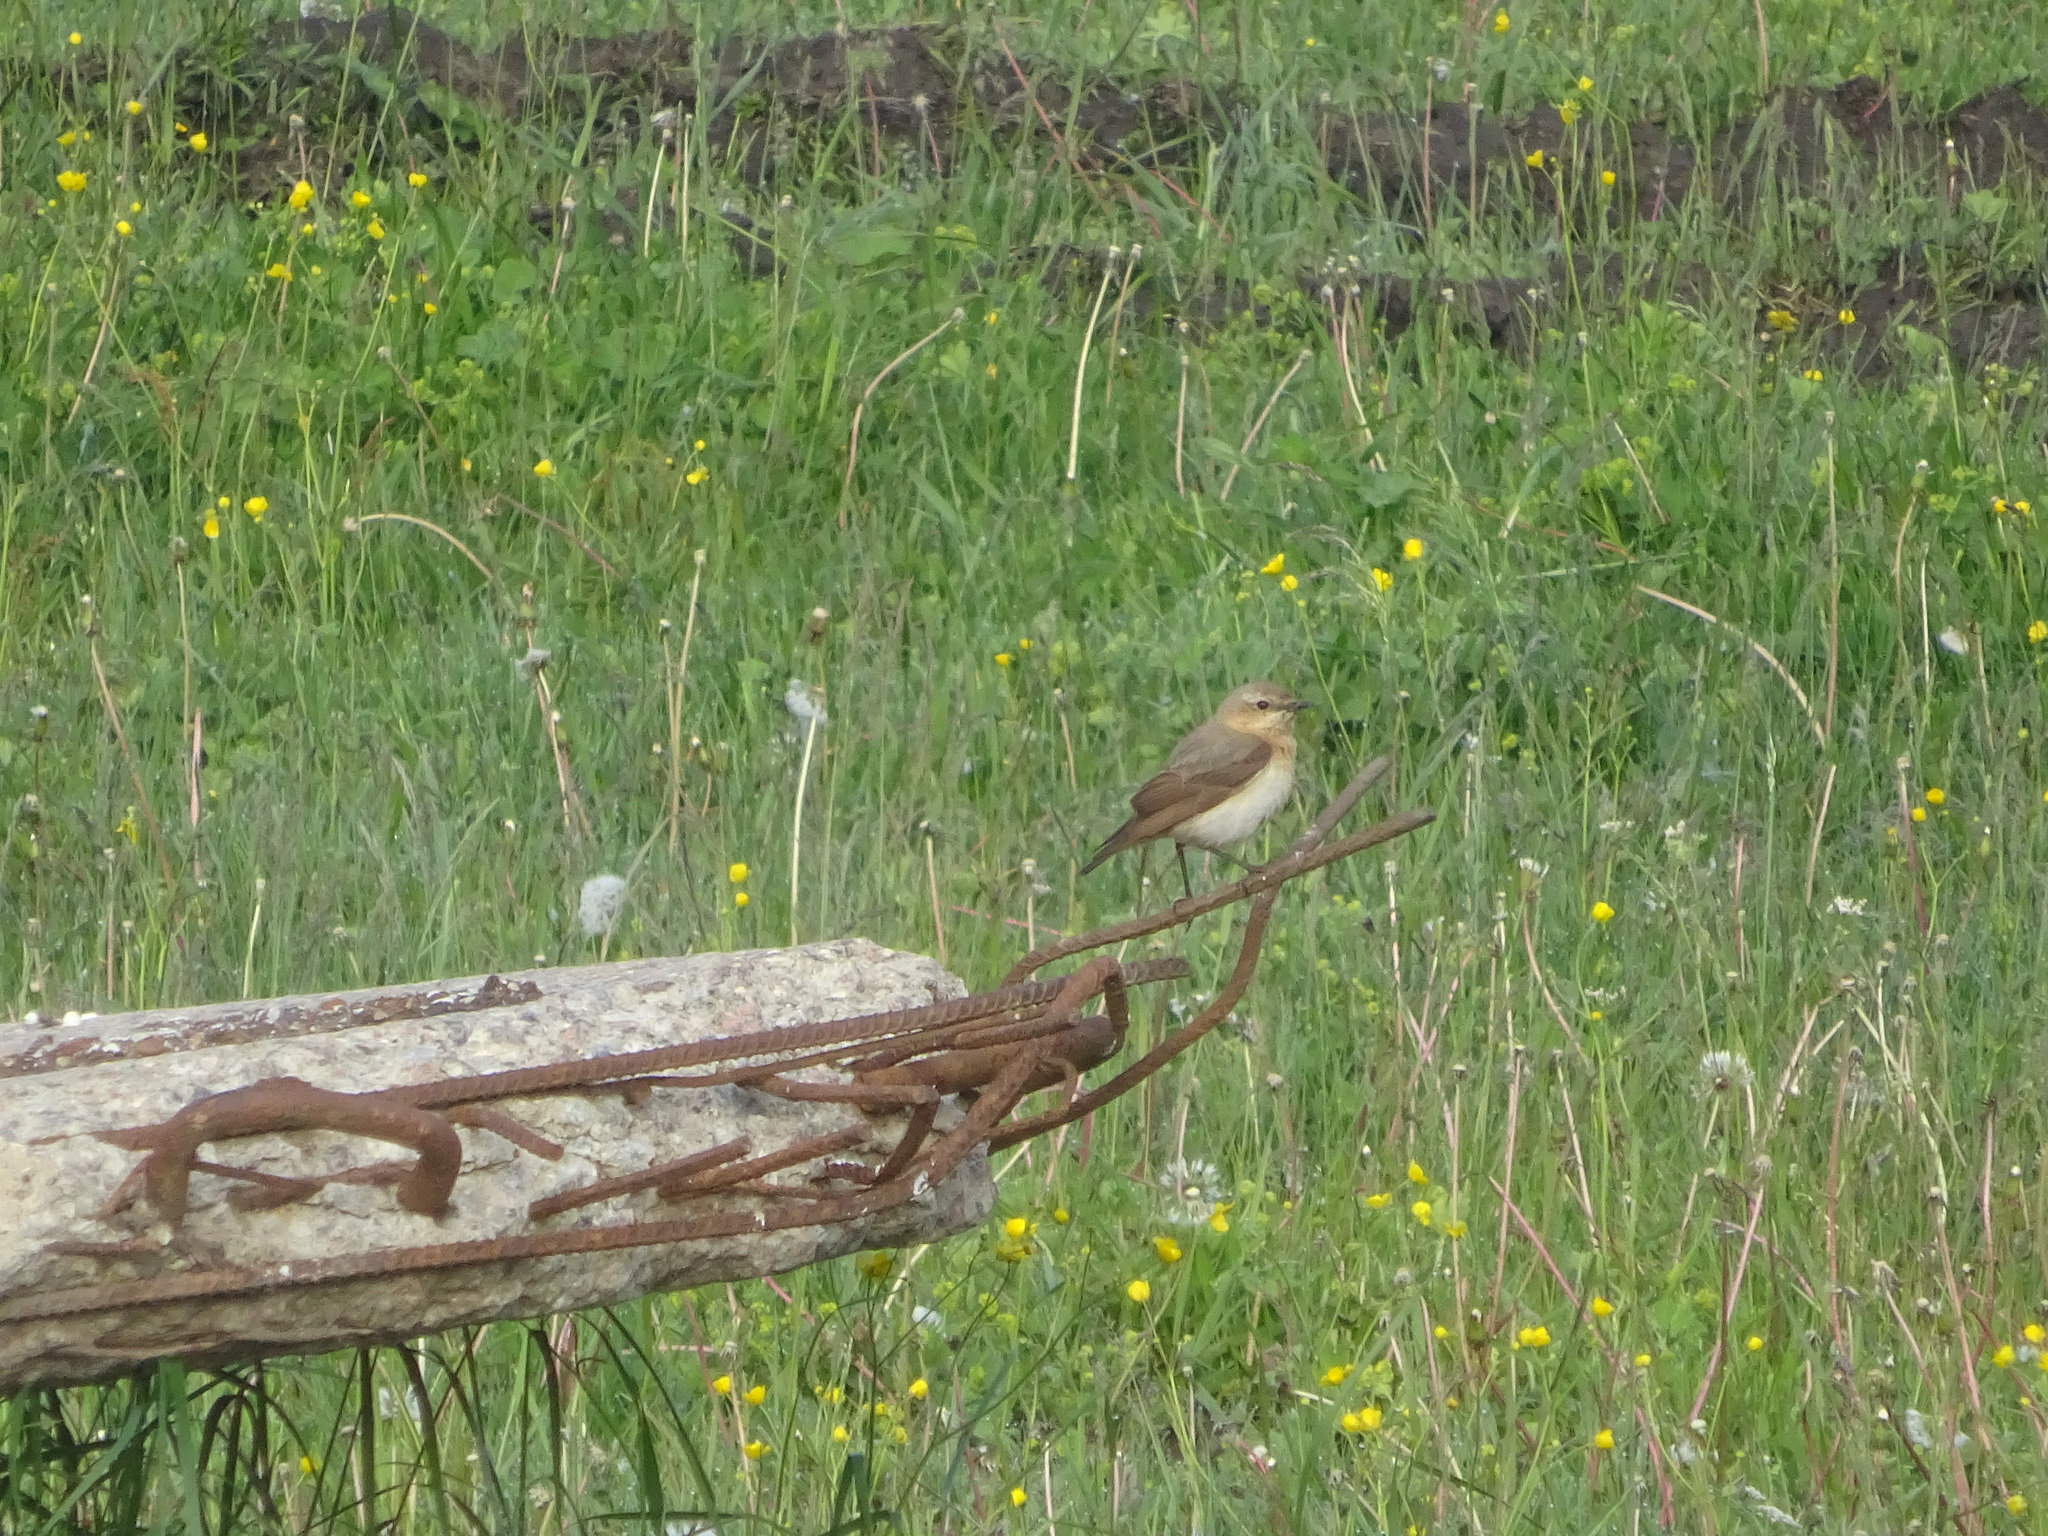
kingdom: Animalia
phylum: Chordata
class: Aves
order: Passeriformes
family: Muscicapidae
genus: Oenanthe
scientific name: Oenanthe oenanthe
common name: Northern wheatear
